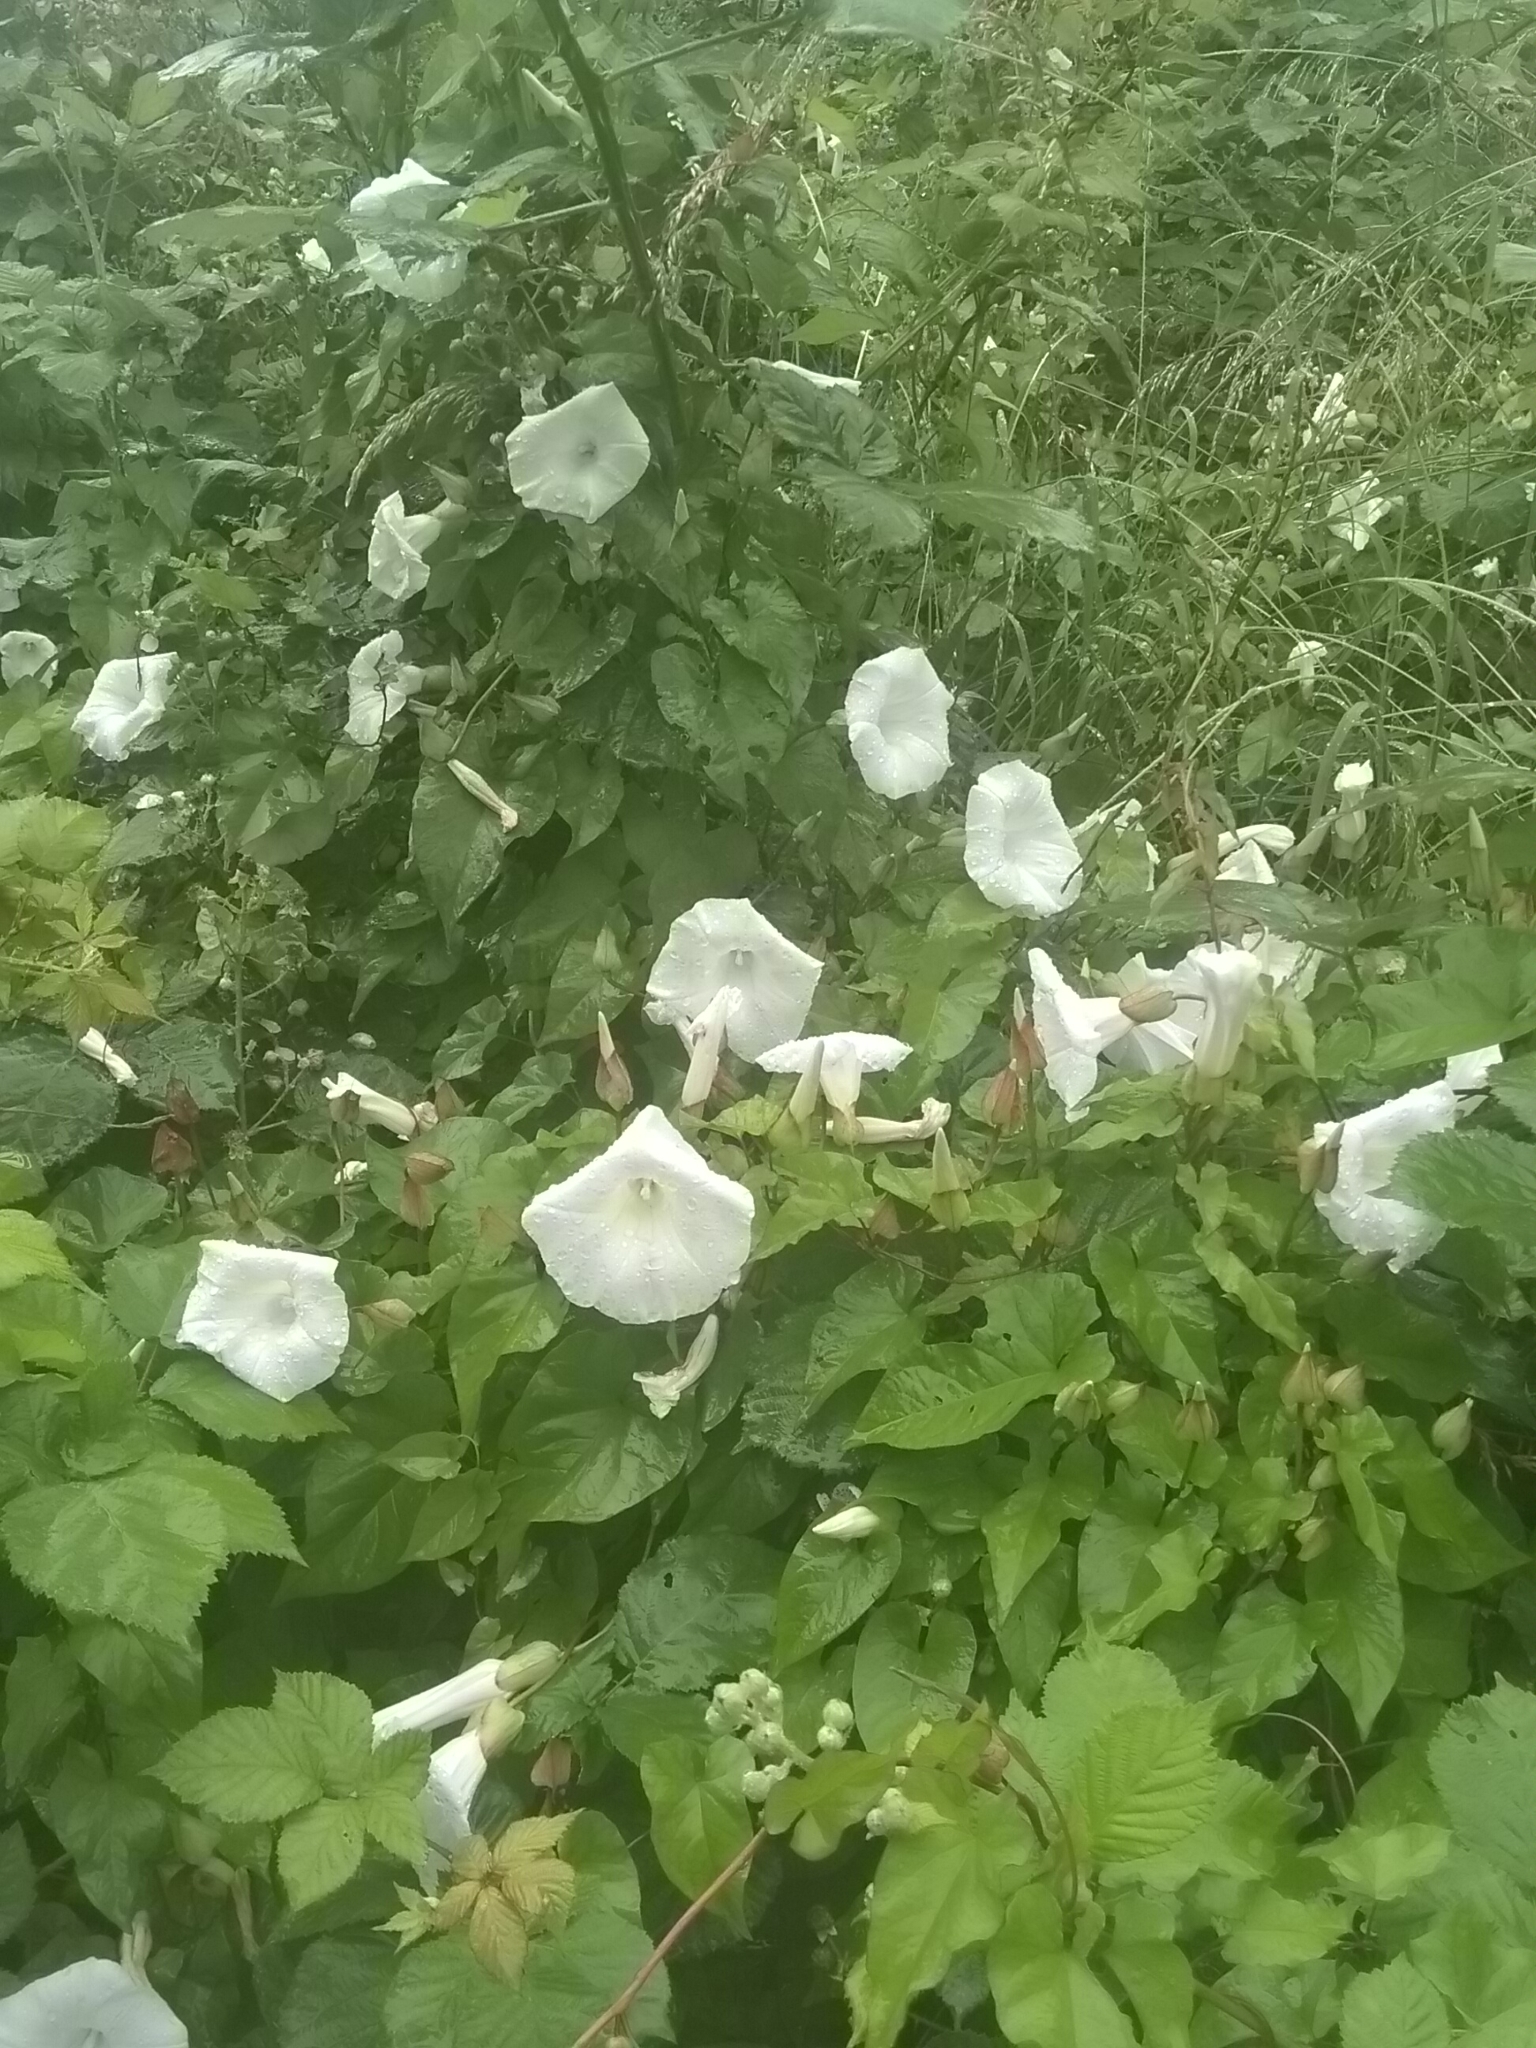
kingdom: Plantae
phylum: Tracheophyta
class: Magnoliopsida
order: Solanales
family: Convolvulaceae
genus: Calystegia
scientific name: Calystegia silvatica
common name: Large bindweed
